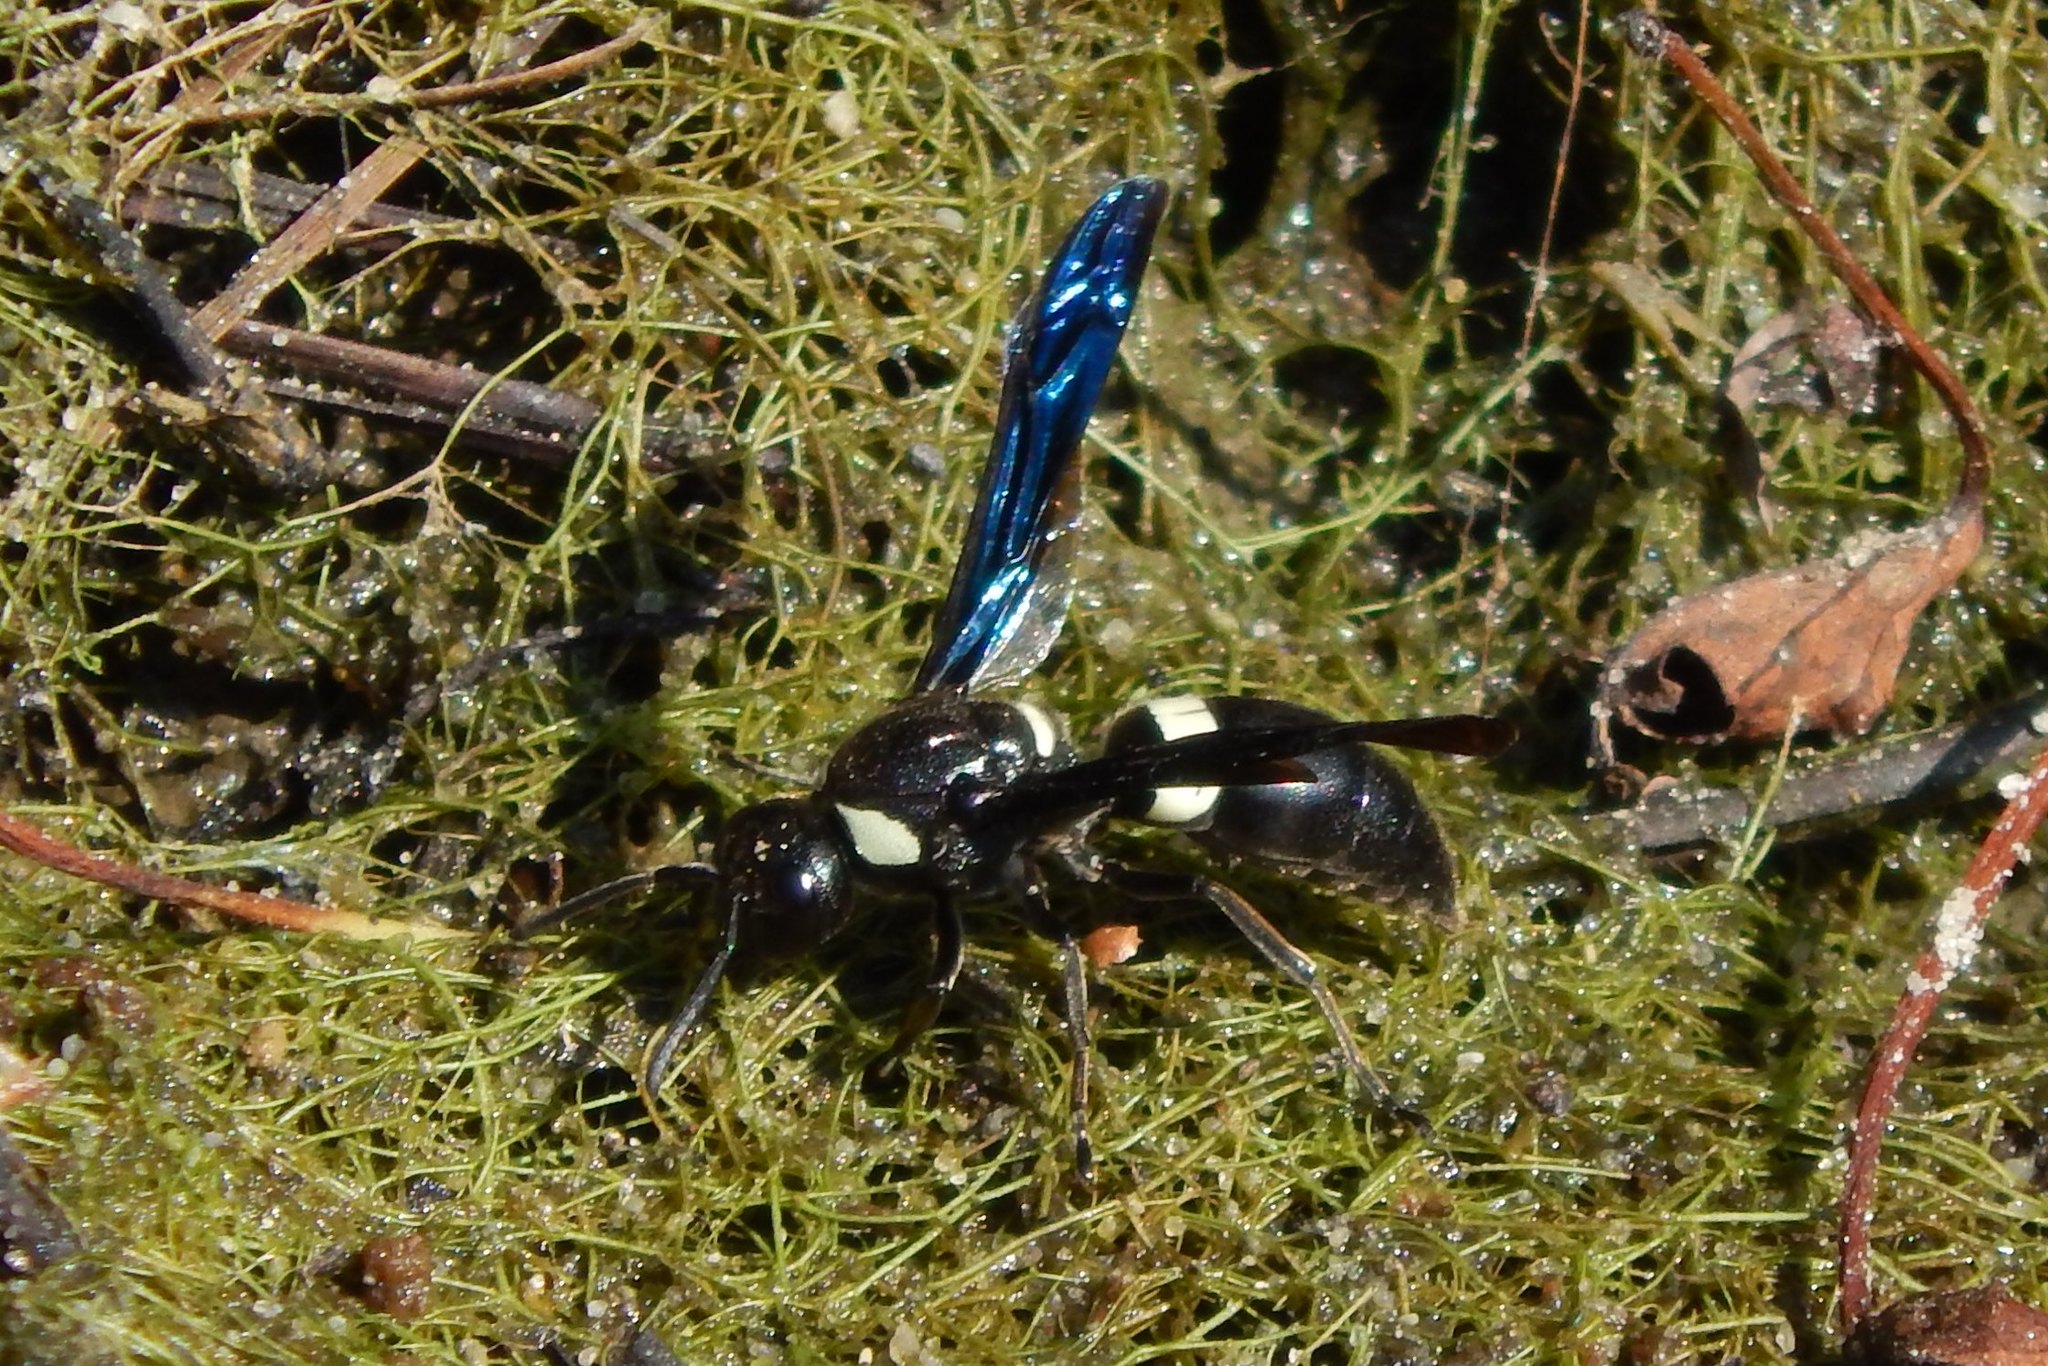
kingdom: Animalia
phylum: Arthropoda
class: Insecta
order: Hymenoptera
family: Eumenidae
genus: Monobia
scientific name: Monobia quadridens
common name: Four-toothed mason wasp
